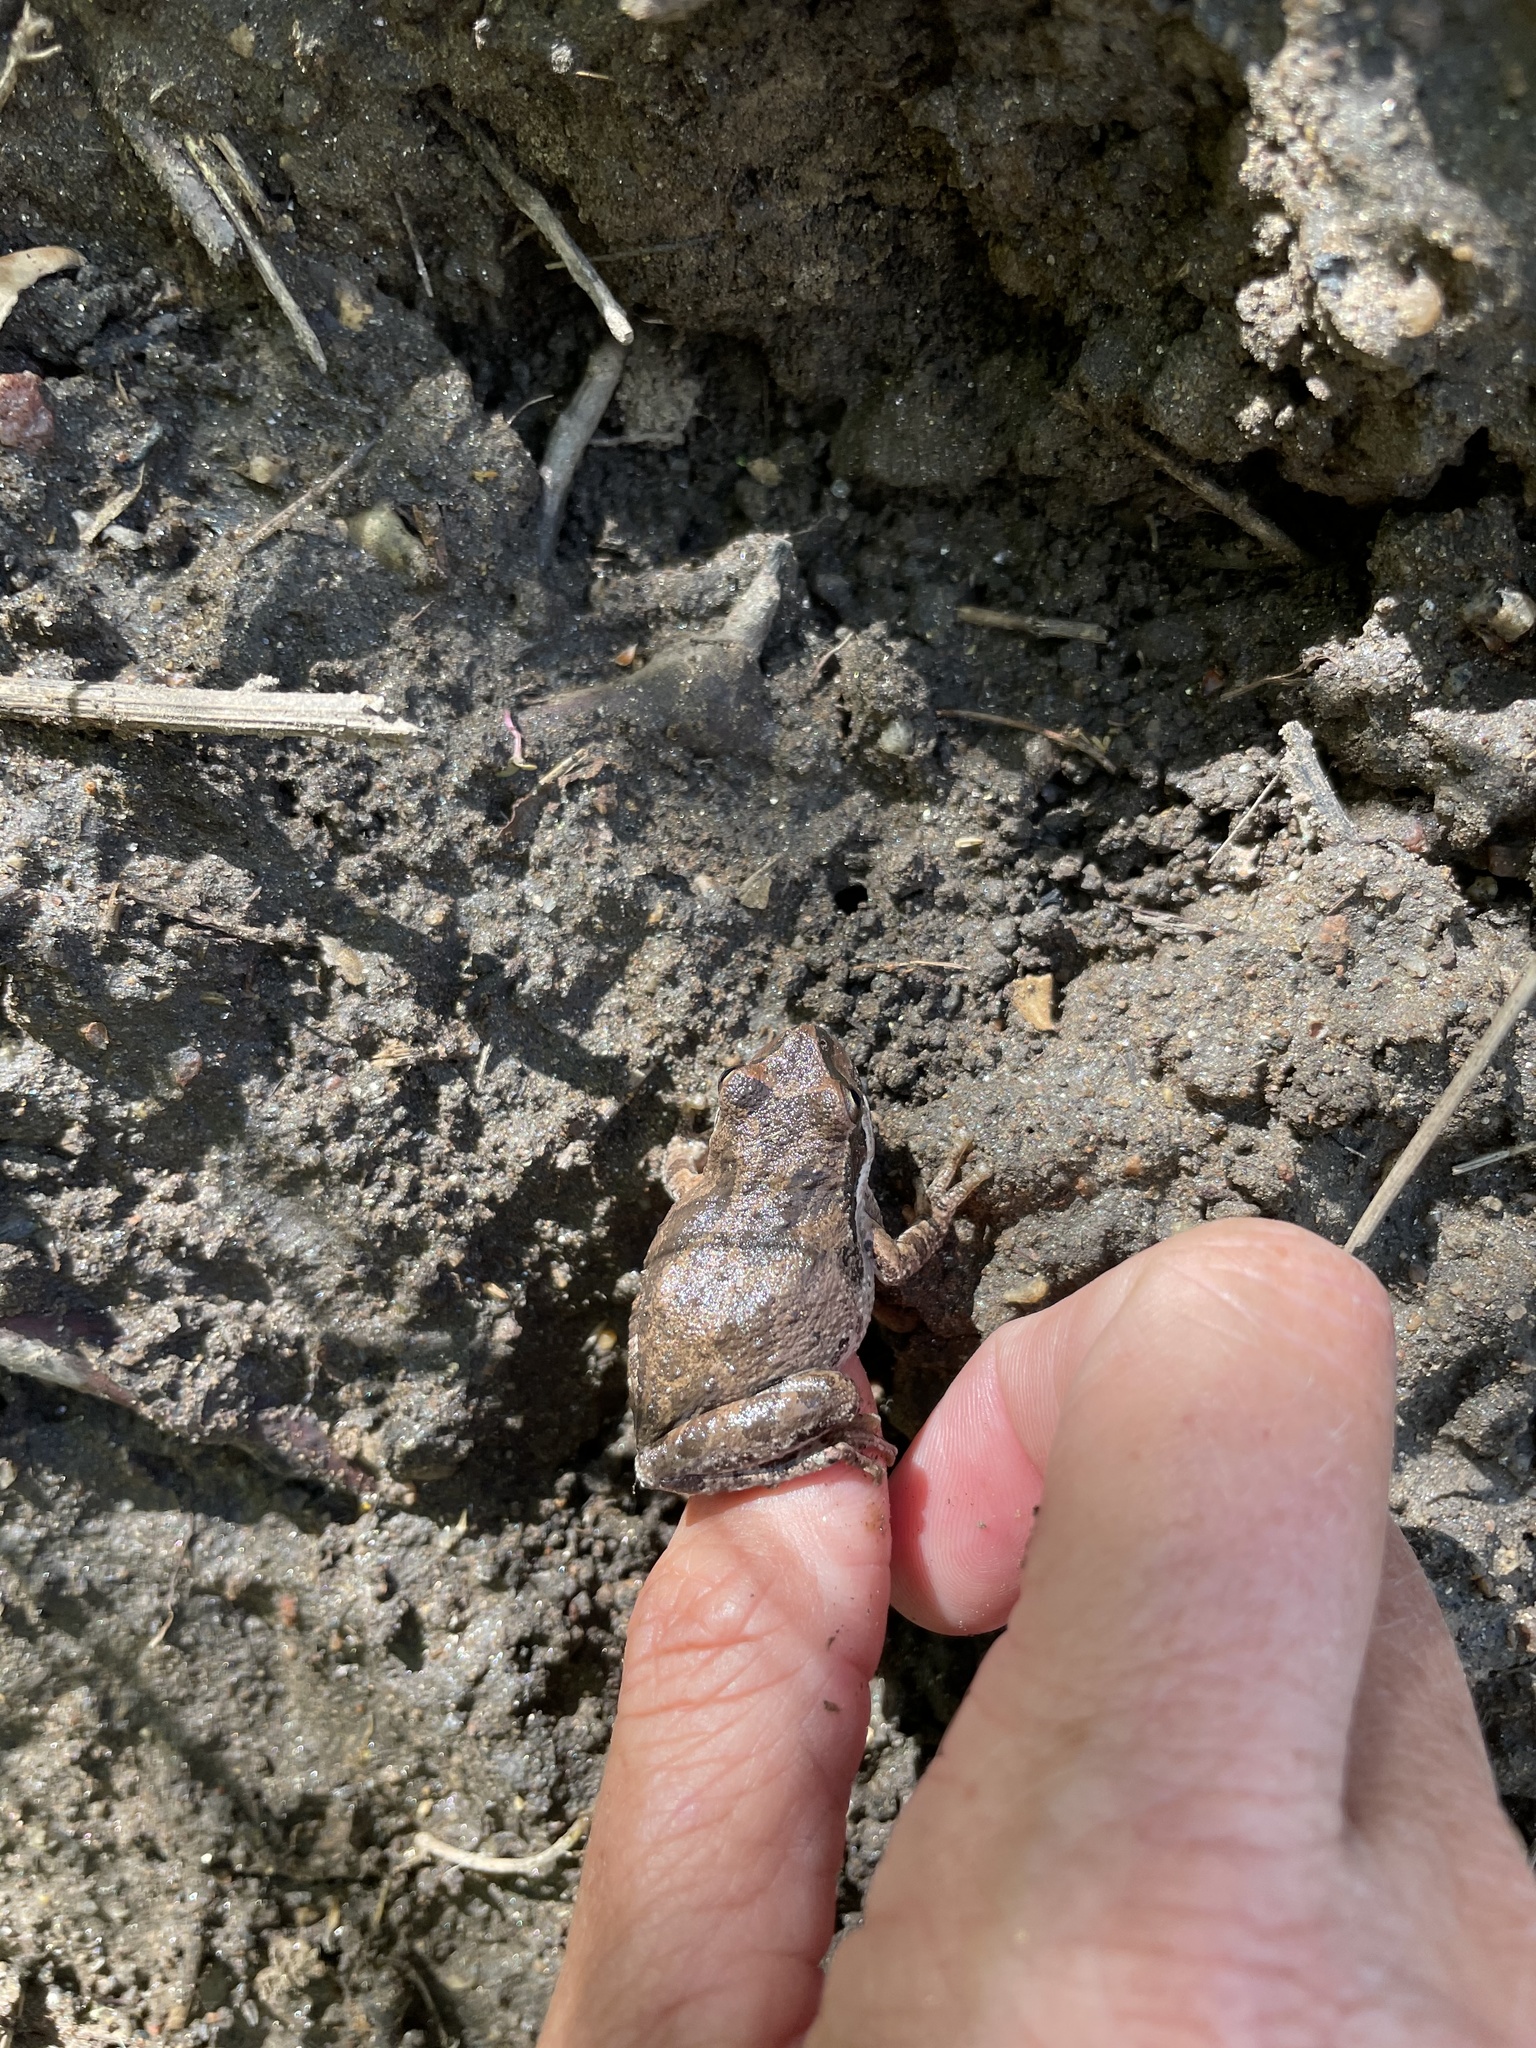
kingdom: Animalia
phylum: Chordata
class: Amphibia
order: Anura
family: Hylidae
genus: Pseudacris
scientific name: Pseudacris regilla
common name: Pacific chorus frog
